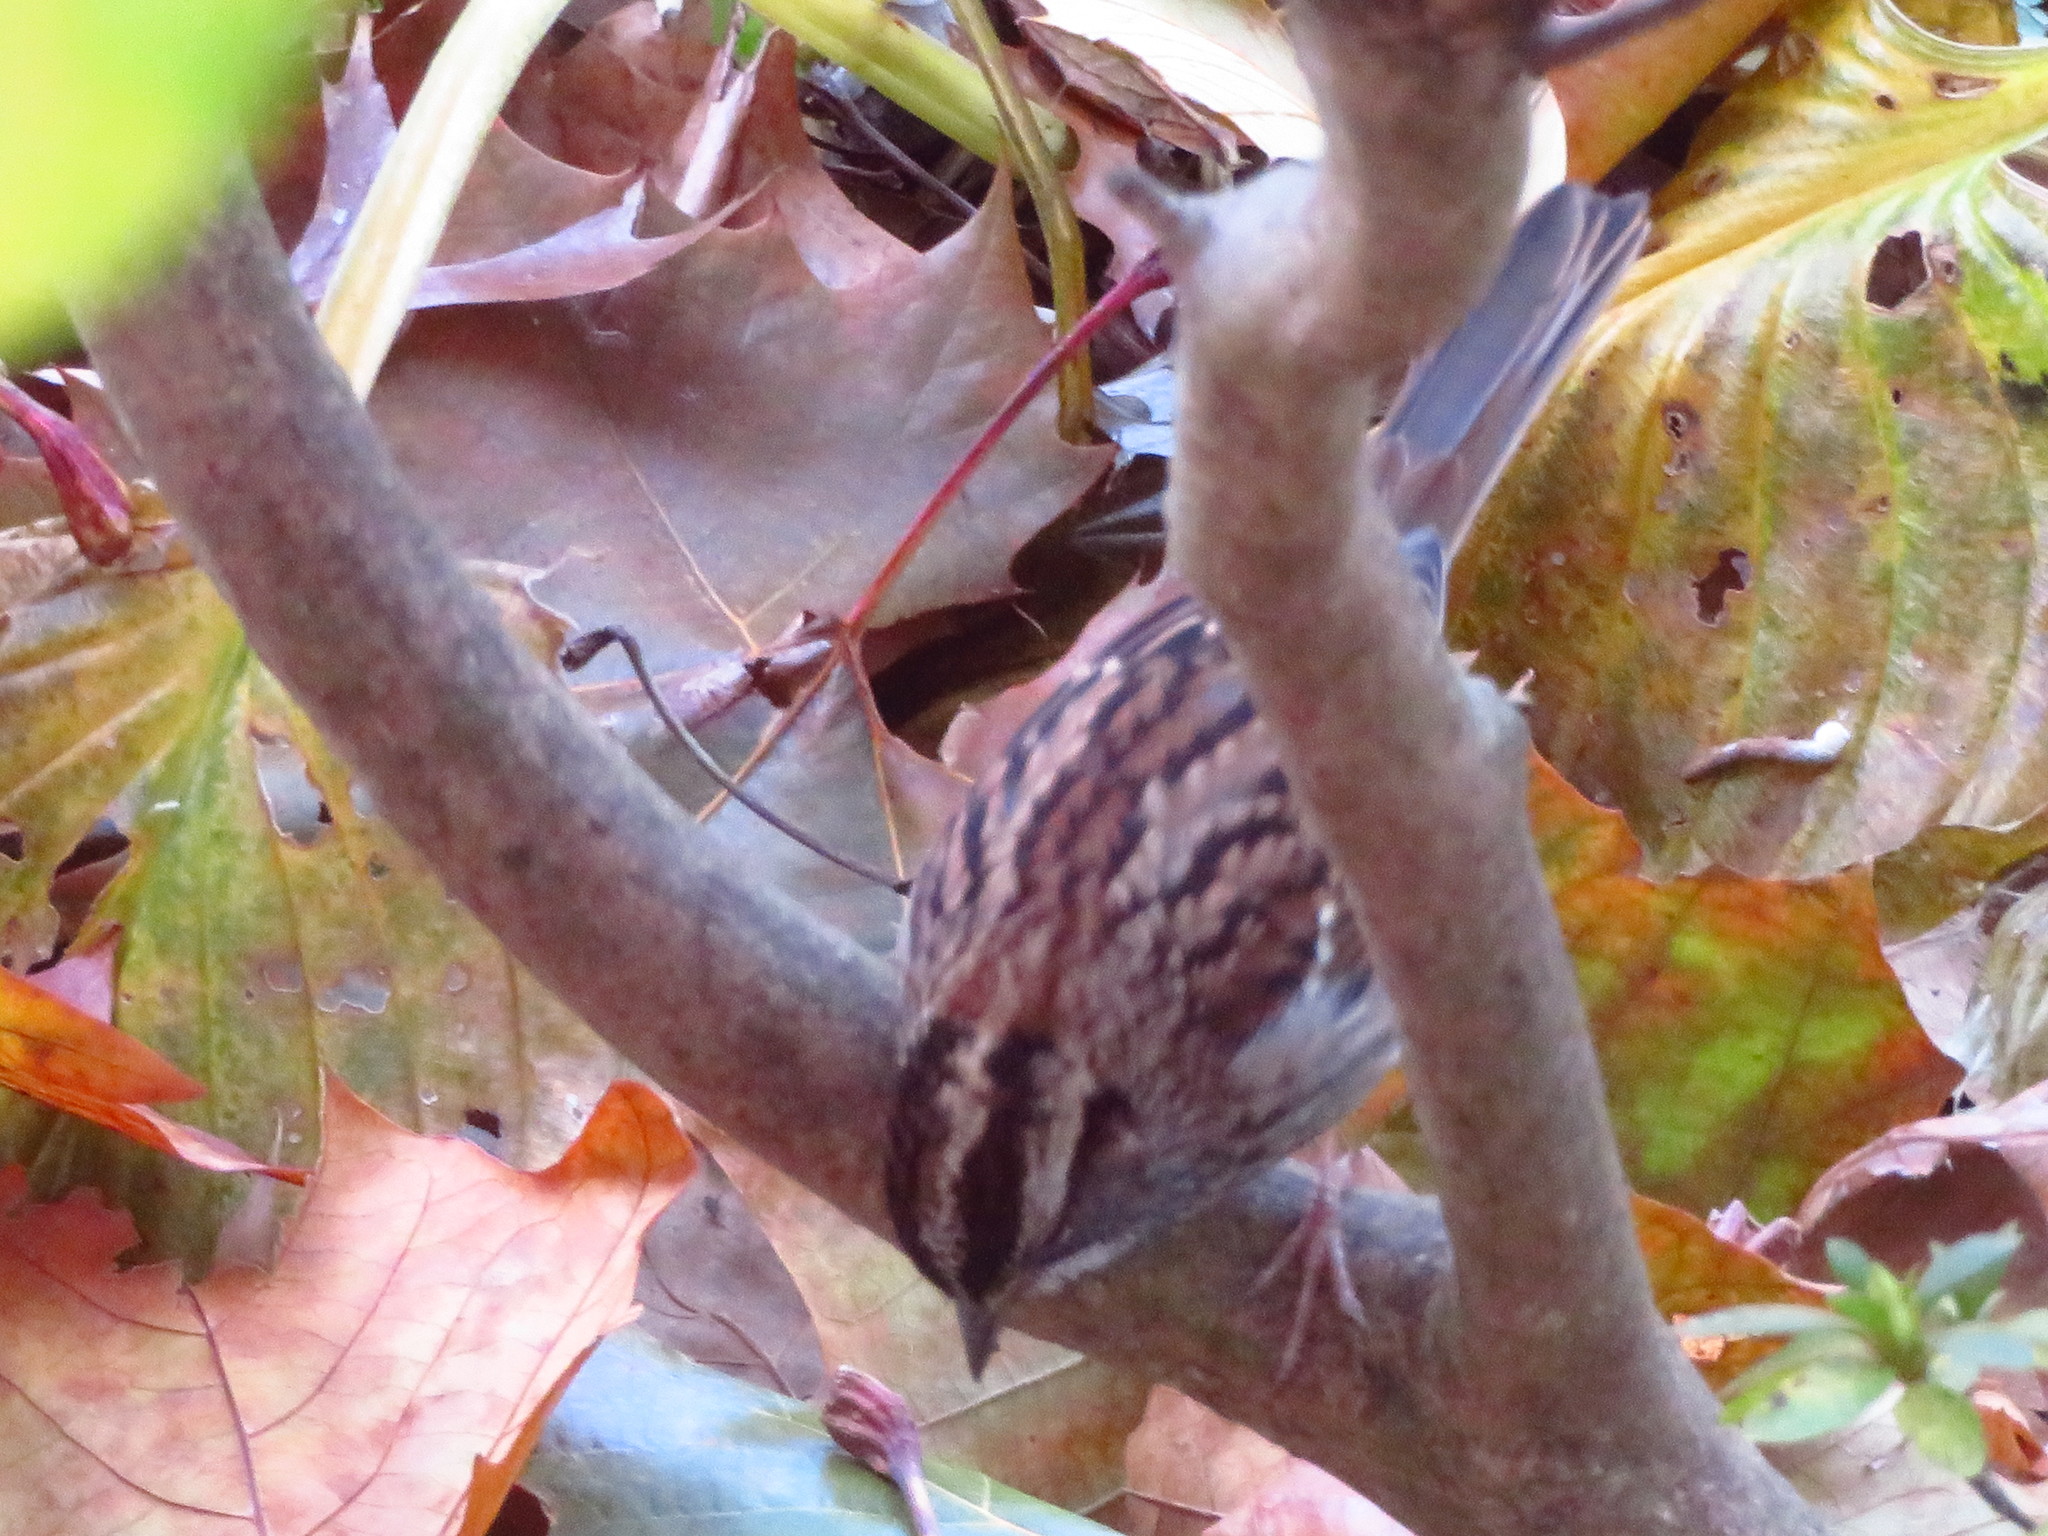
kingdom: Animalia
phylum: Chordata
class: Aves
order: Passeriformes
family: Passerellidae
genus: Zonotrichia
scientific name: Zonotrichia albicollis
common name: White-throated sparrow
